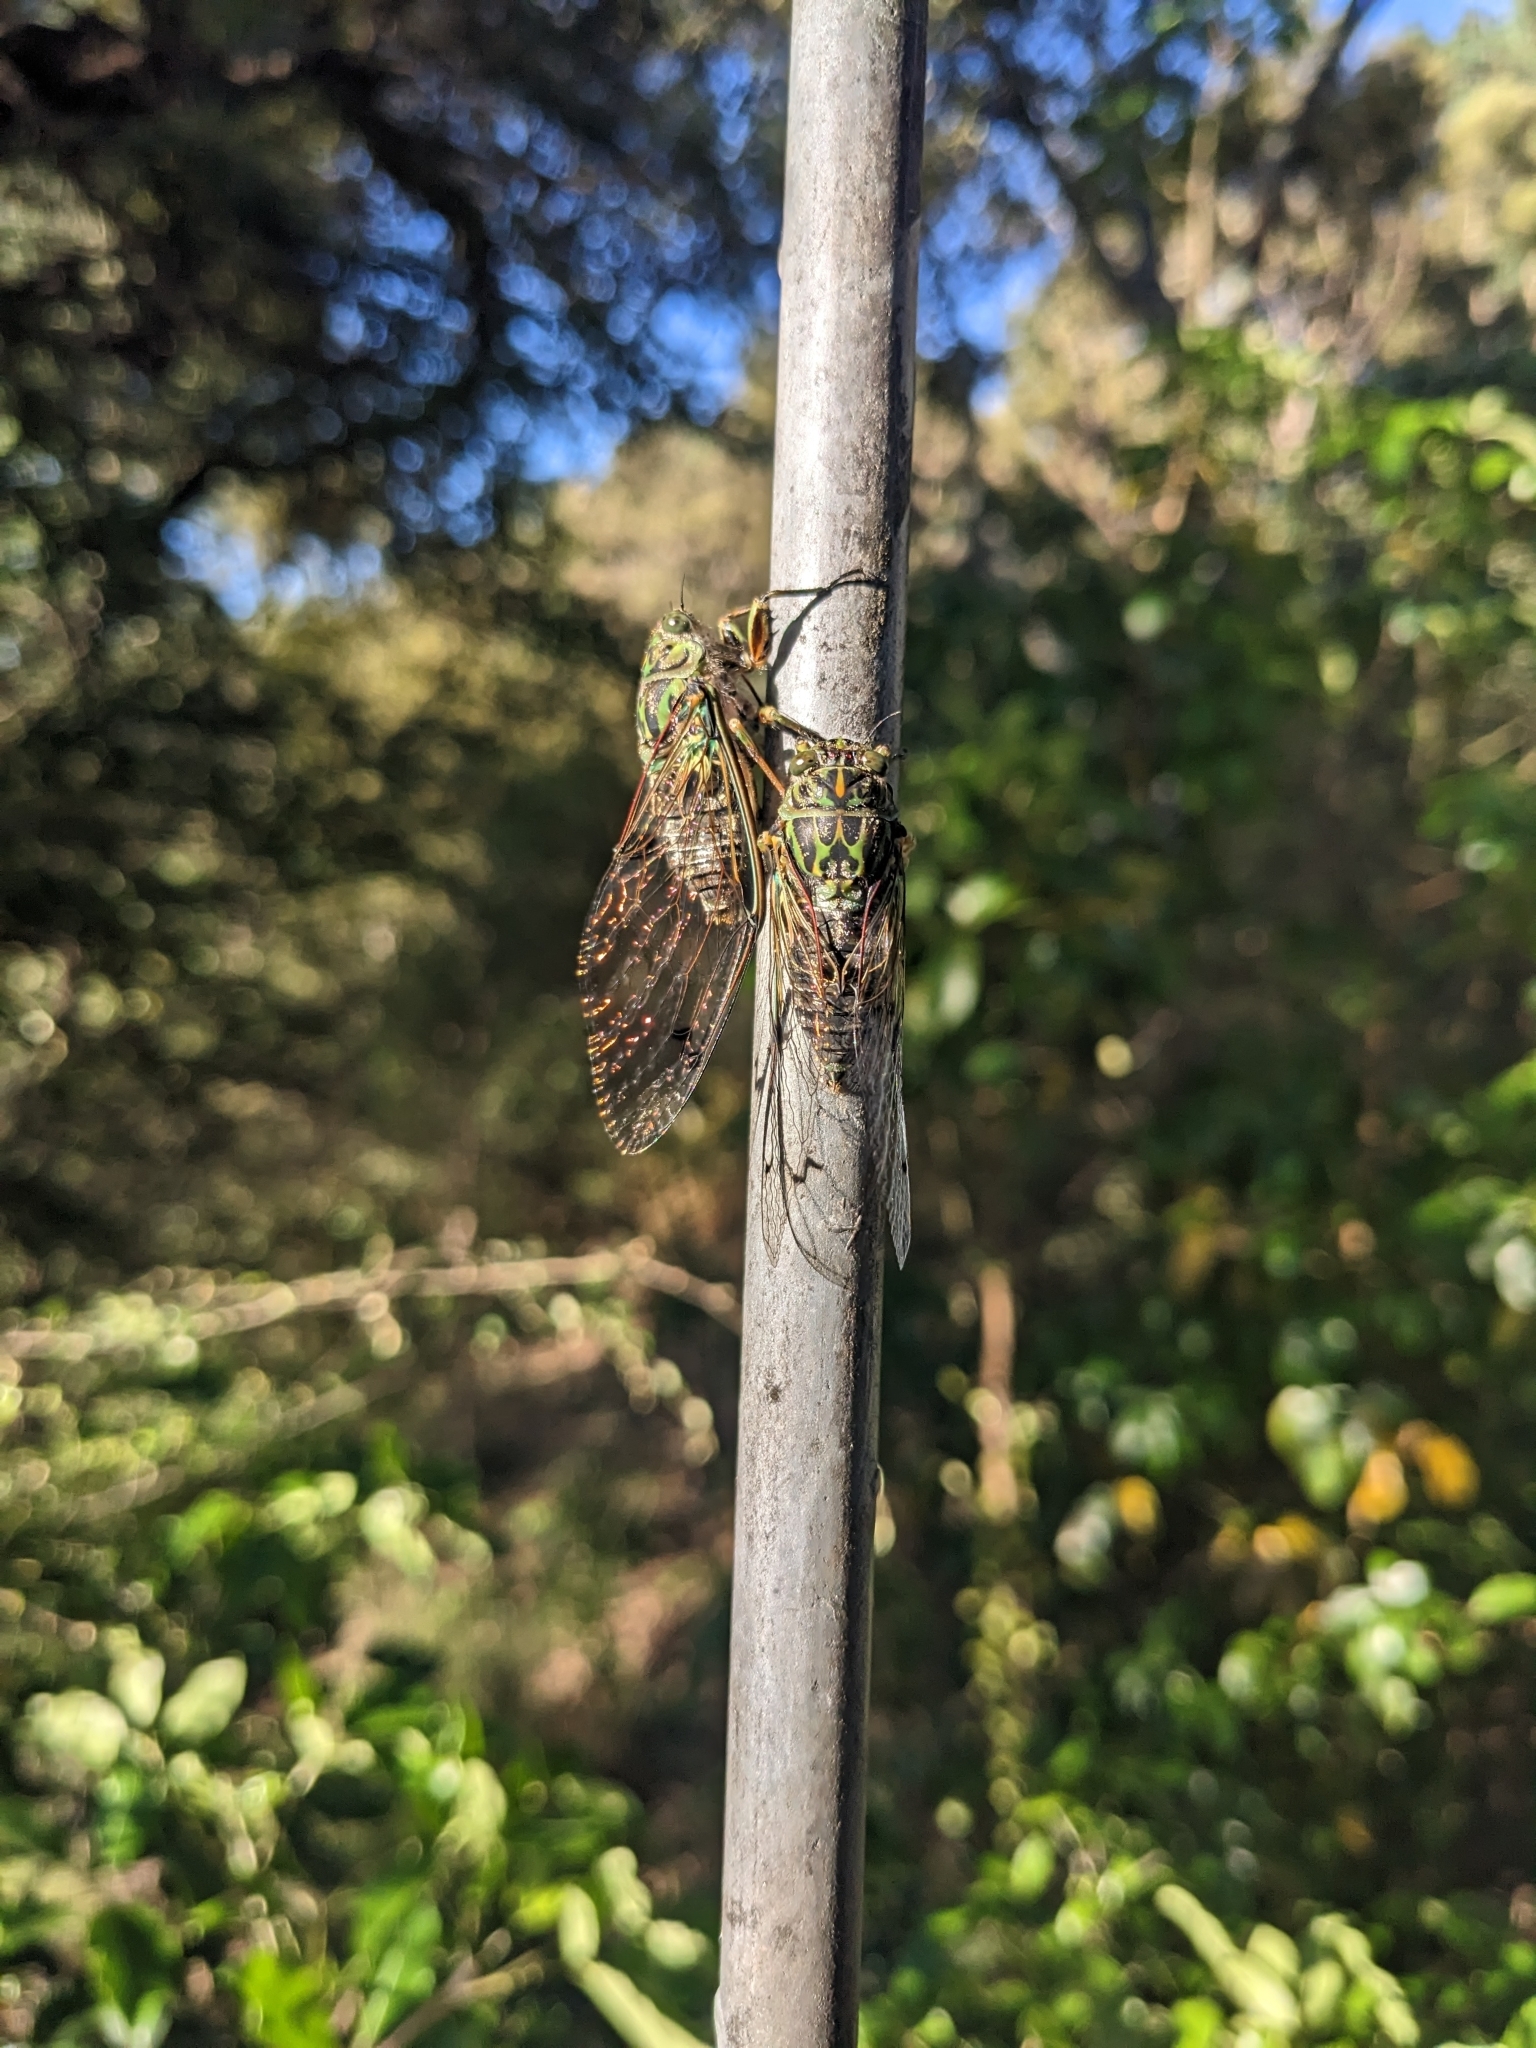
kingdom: Animalia
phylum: Arthropoda
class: Insecta
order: Hemiptera
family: Cicadidae
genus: Amphipsalta
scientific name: Amphipsalta zelandica
